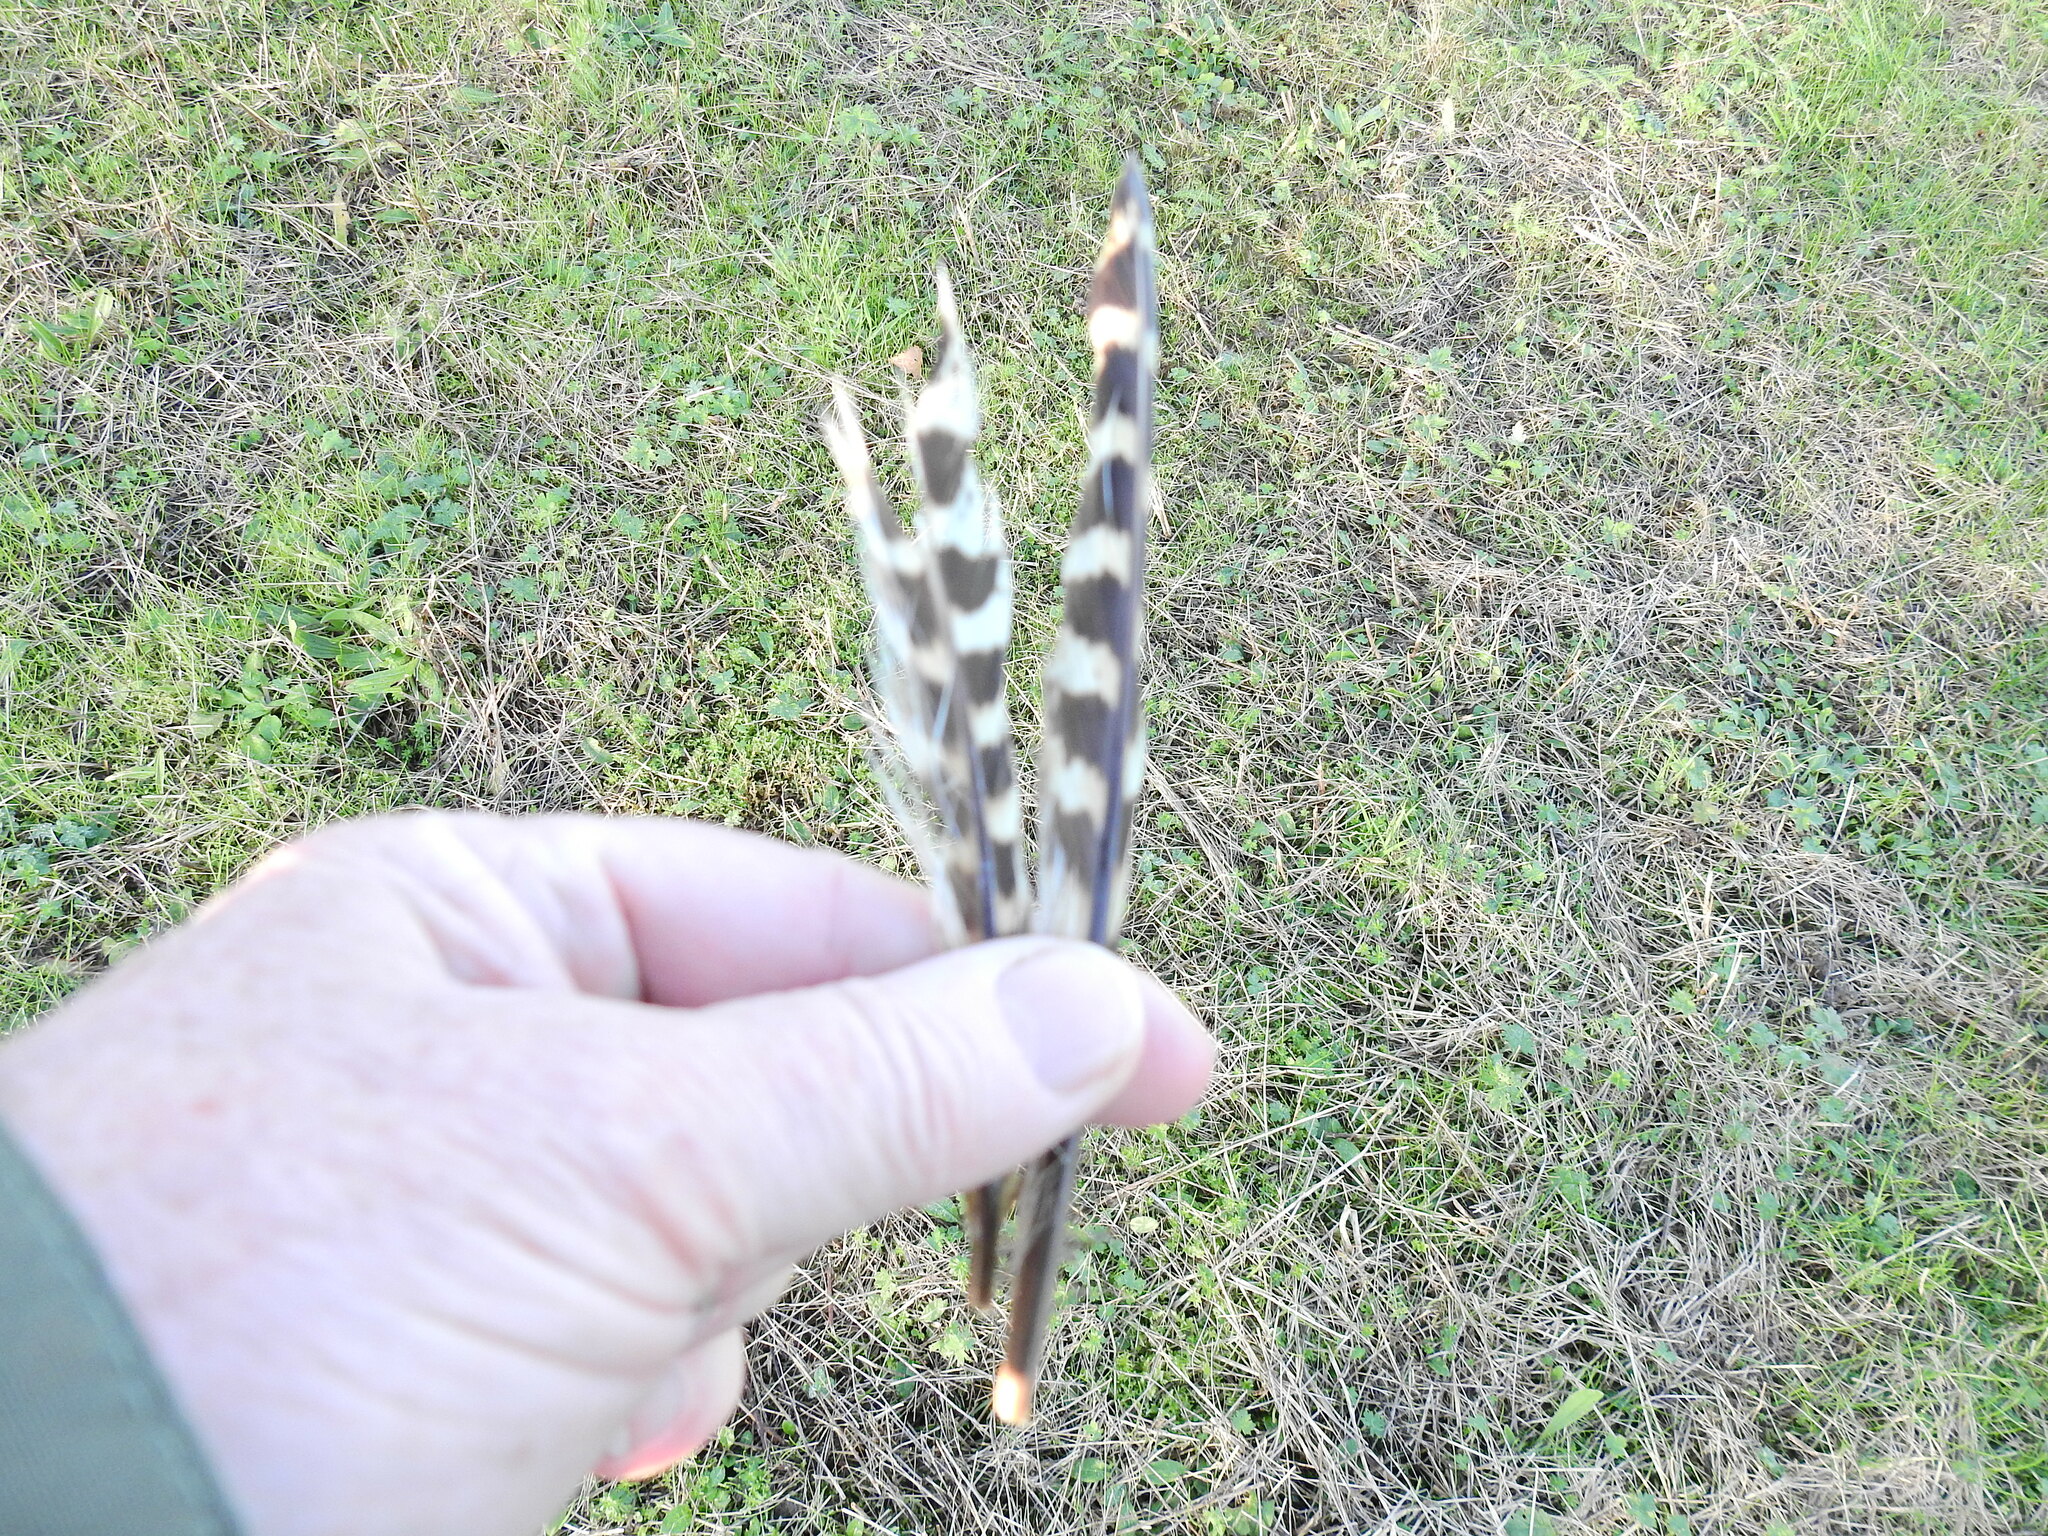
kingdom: Animalia
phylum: Chordata
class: Aves
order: Galliformes
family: Phasianidae
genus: Phasianus
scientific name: Phasianus colchicus
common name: Common pheasant
